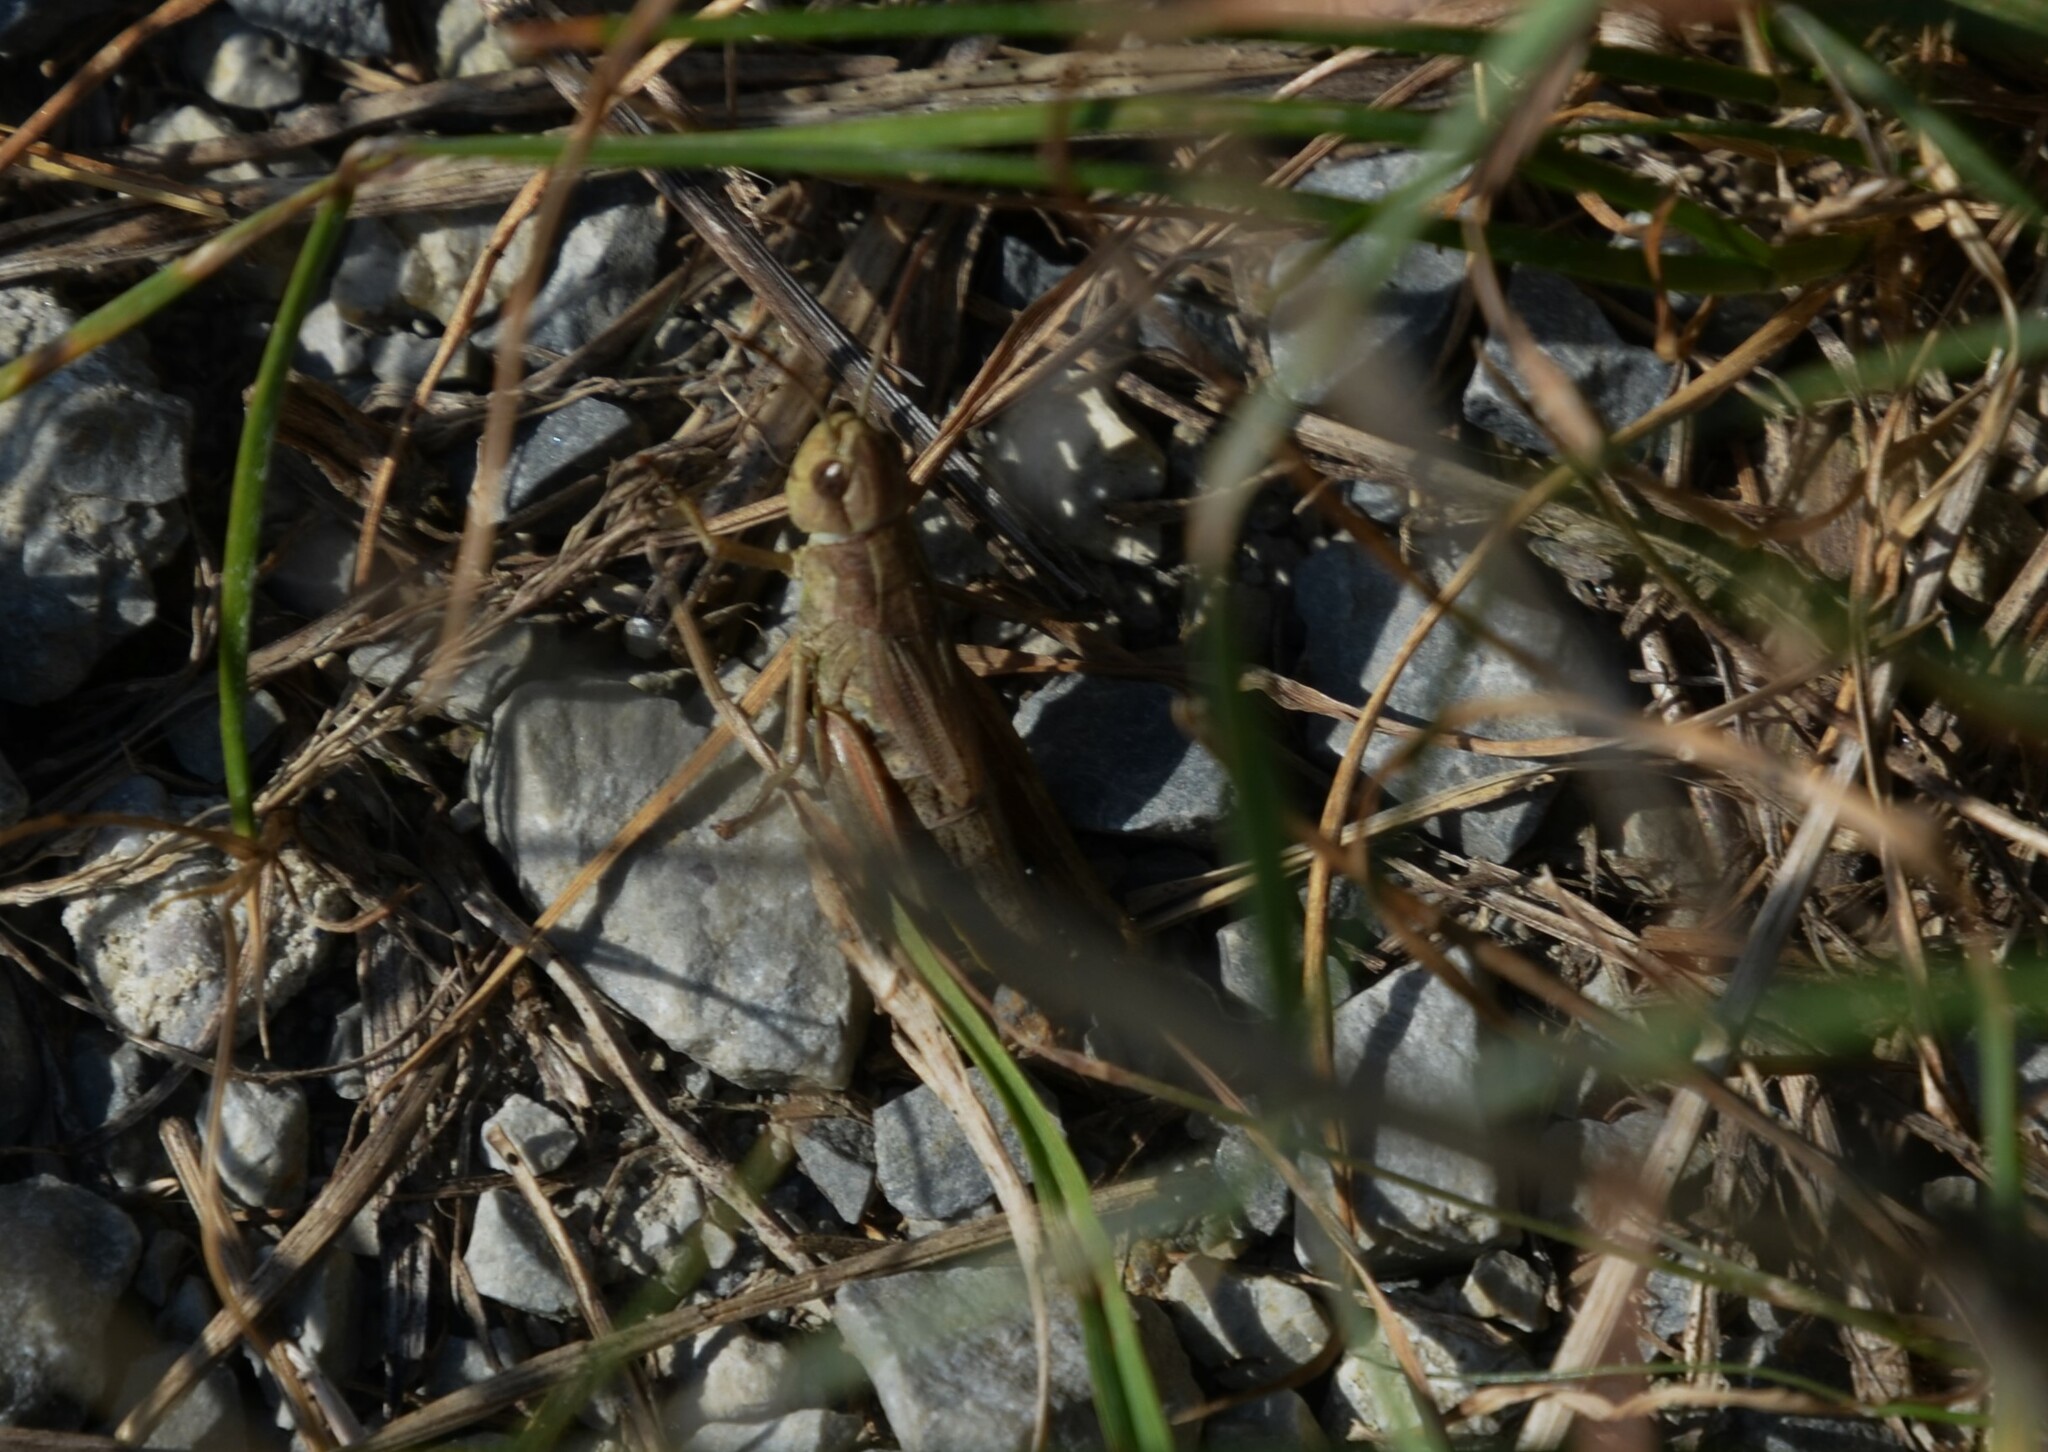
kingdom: Animalia
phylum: Arthropoda
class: Insecta
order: Orthoptera
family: Acrididae
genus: Pseudochorthippus
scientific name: Pseudochorthippus parallelus
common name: Meadow grasshopper
